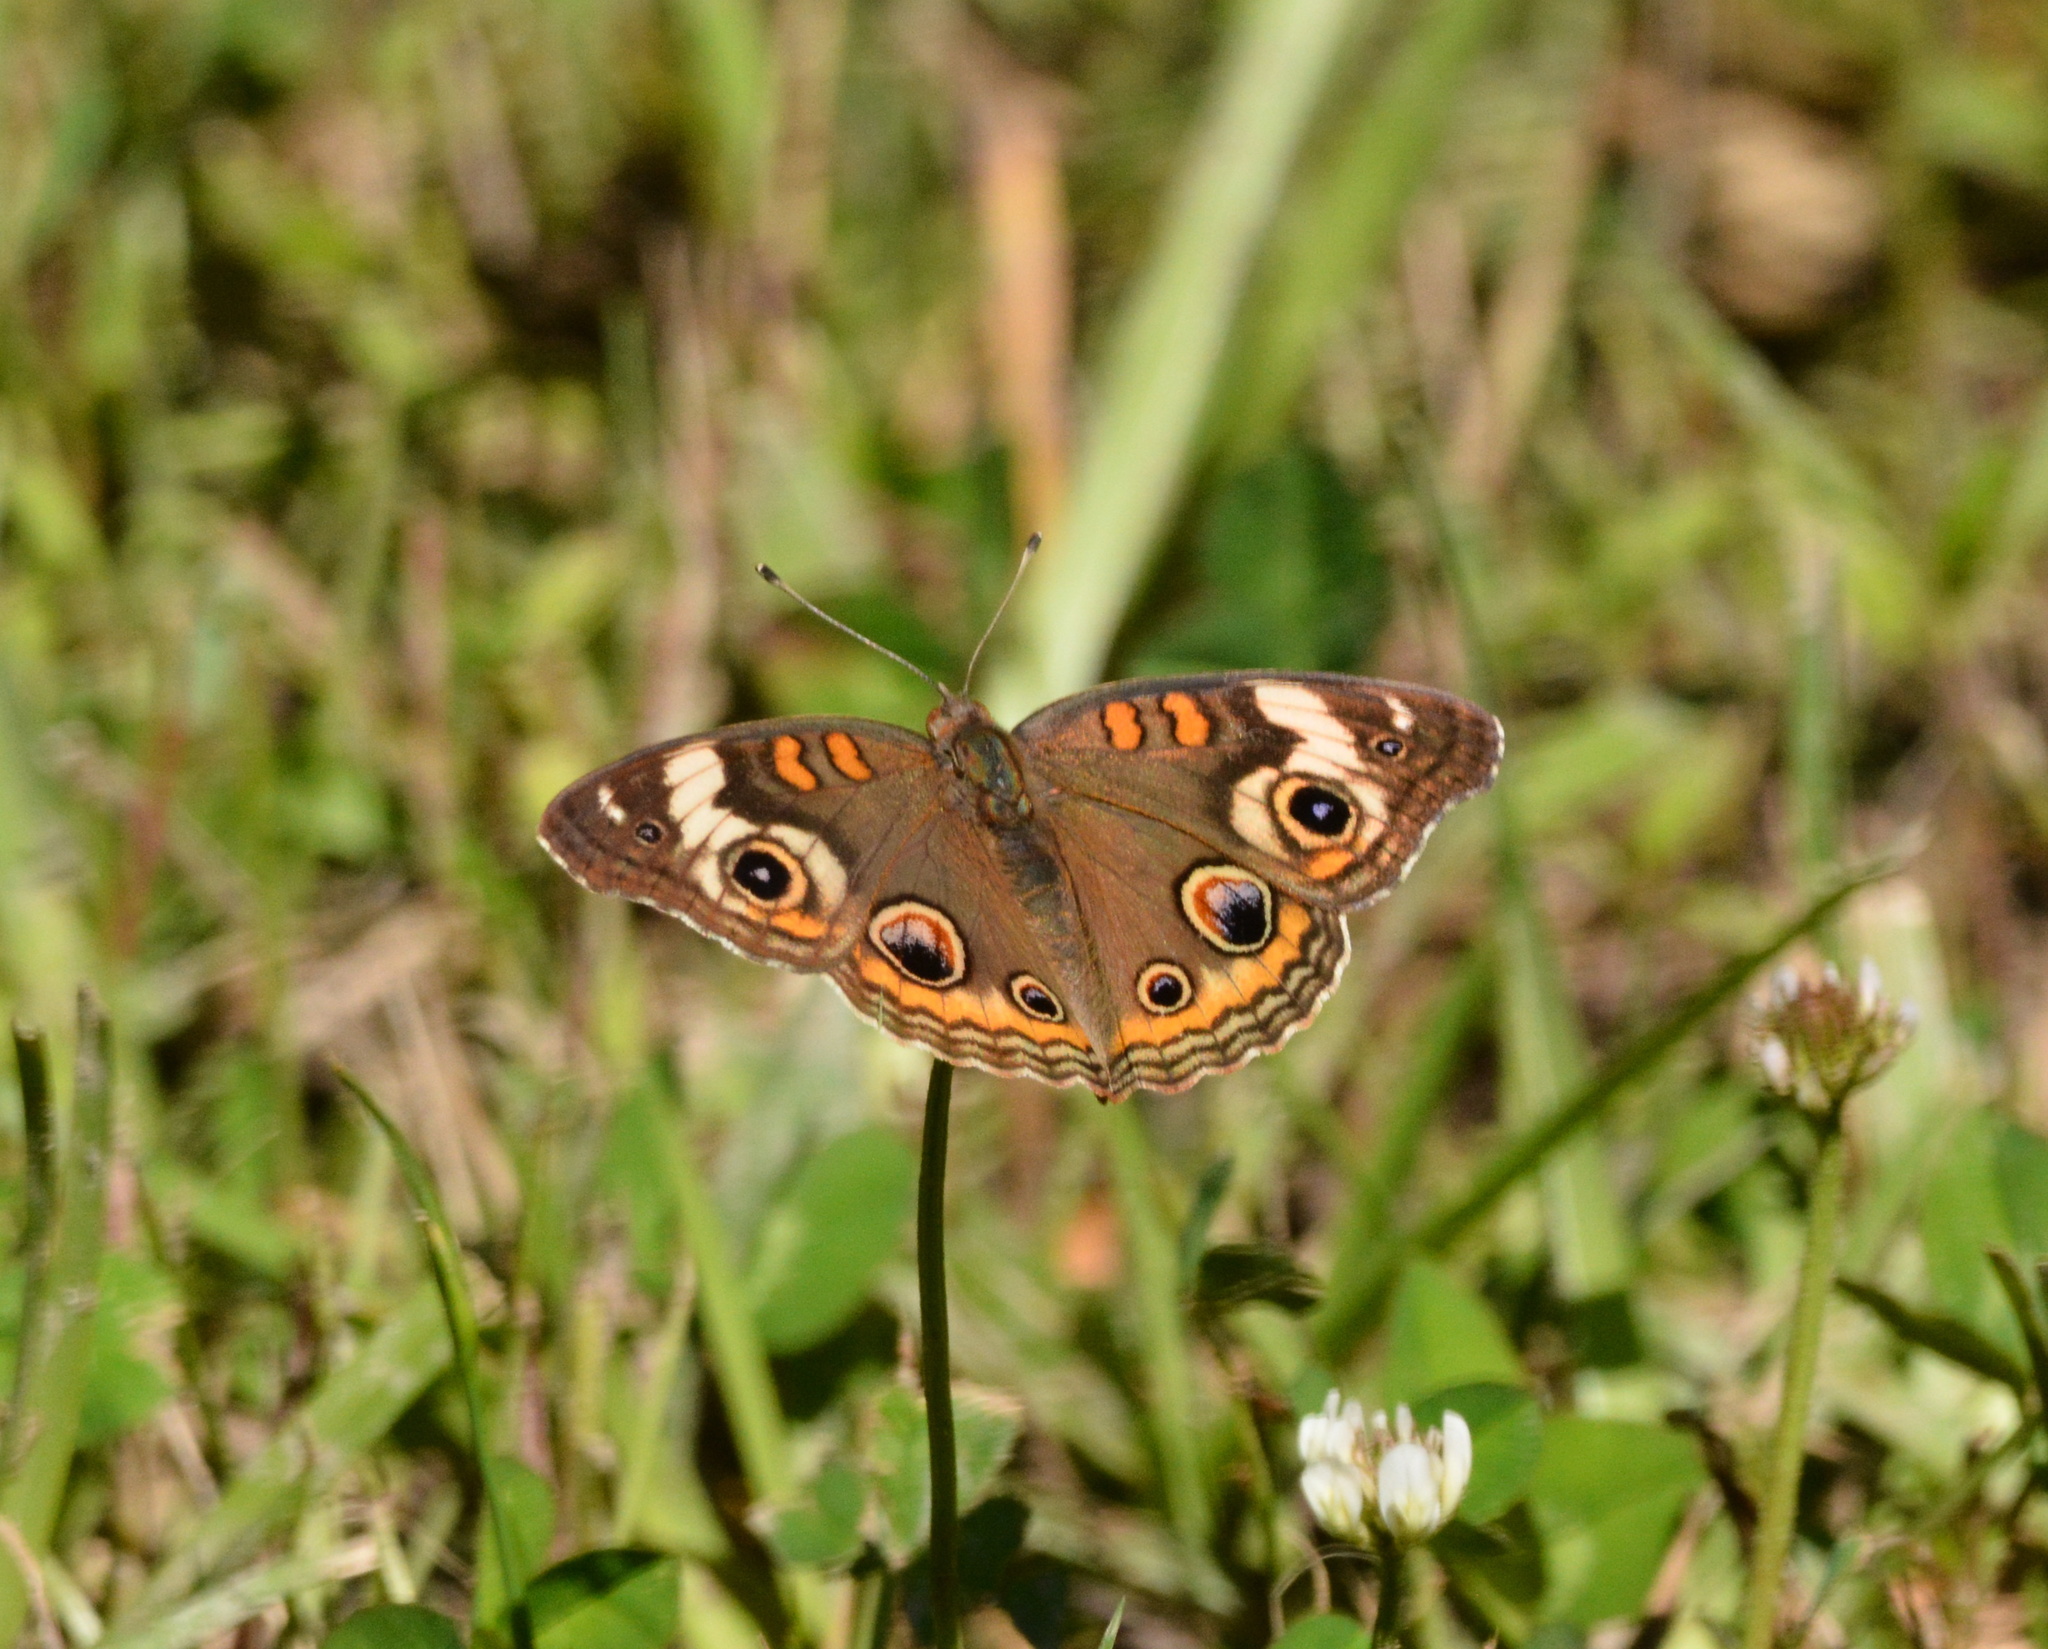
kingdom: Animalia
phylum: Arthropoda
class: Insecta
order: Lepidoptera
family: Nymphalidae
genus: Junonia
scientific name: Junonia coenia
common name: Common buckeye
